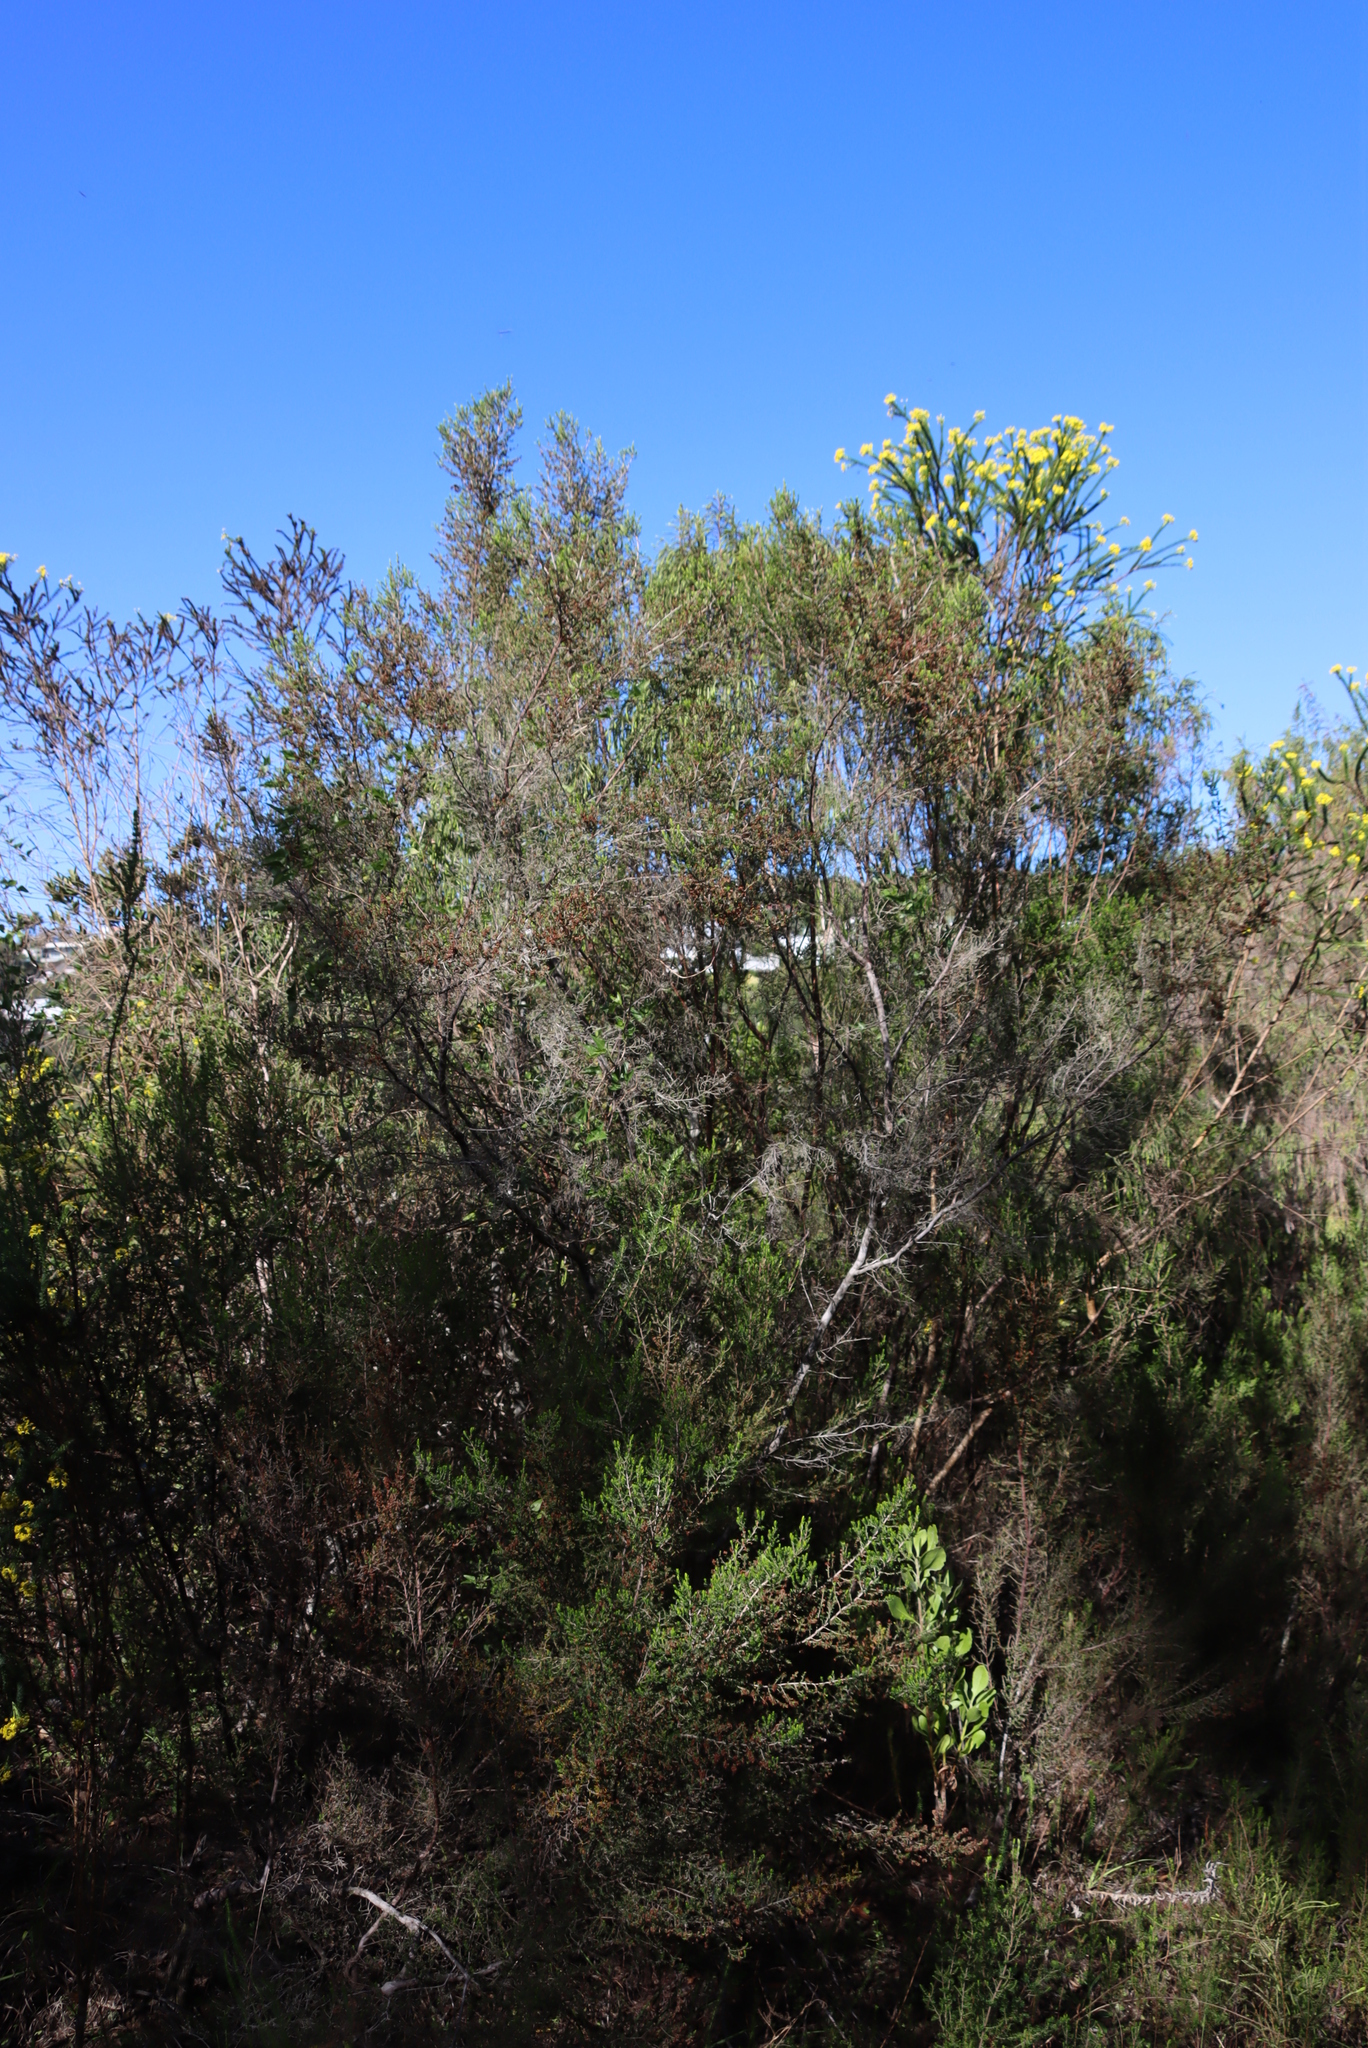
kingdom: Plantae
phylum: Tracheophyta
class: Magnoliopsida
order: Ericales
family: Ericaceae
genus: Erica
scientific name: Erica sparsa
